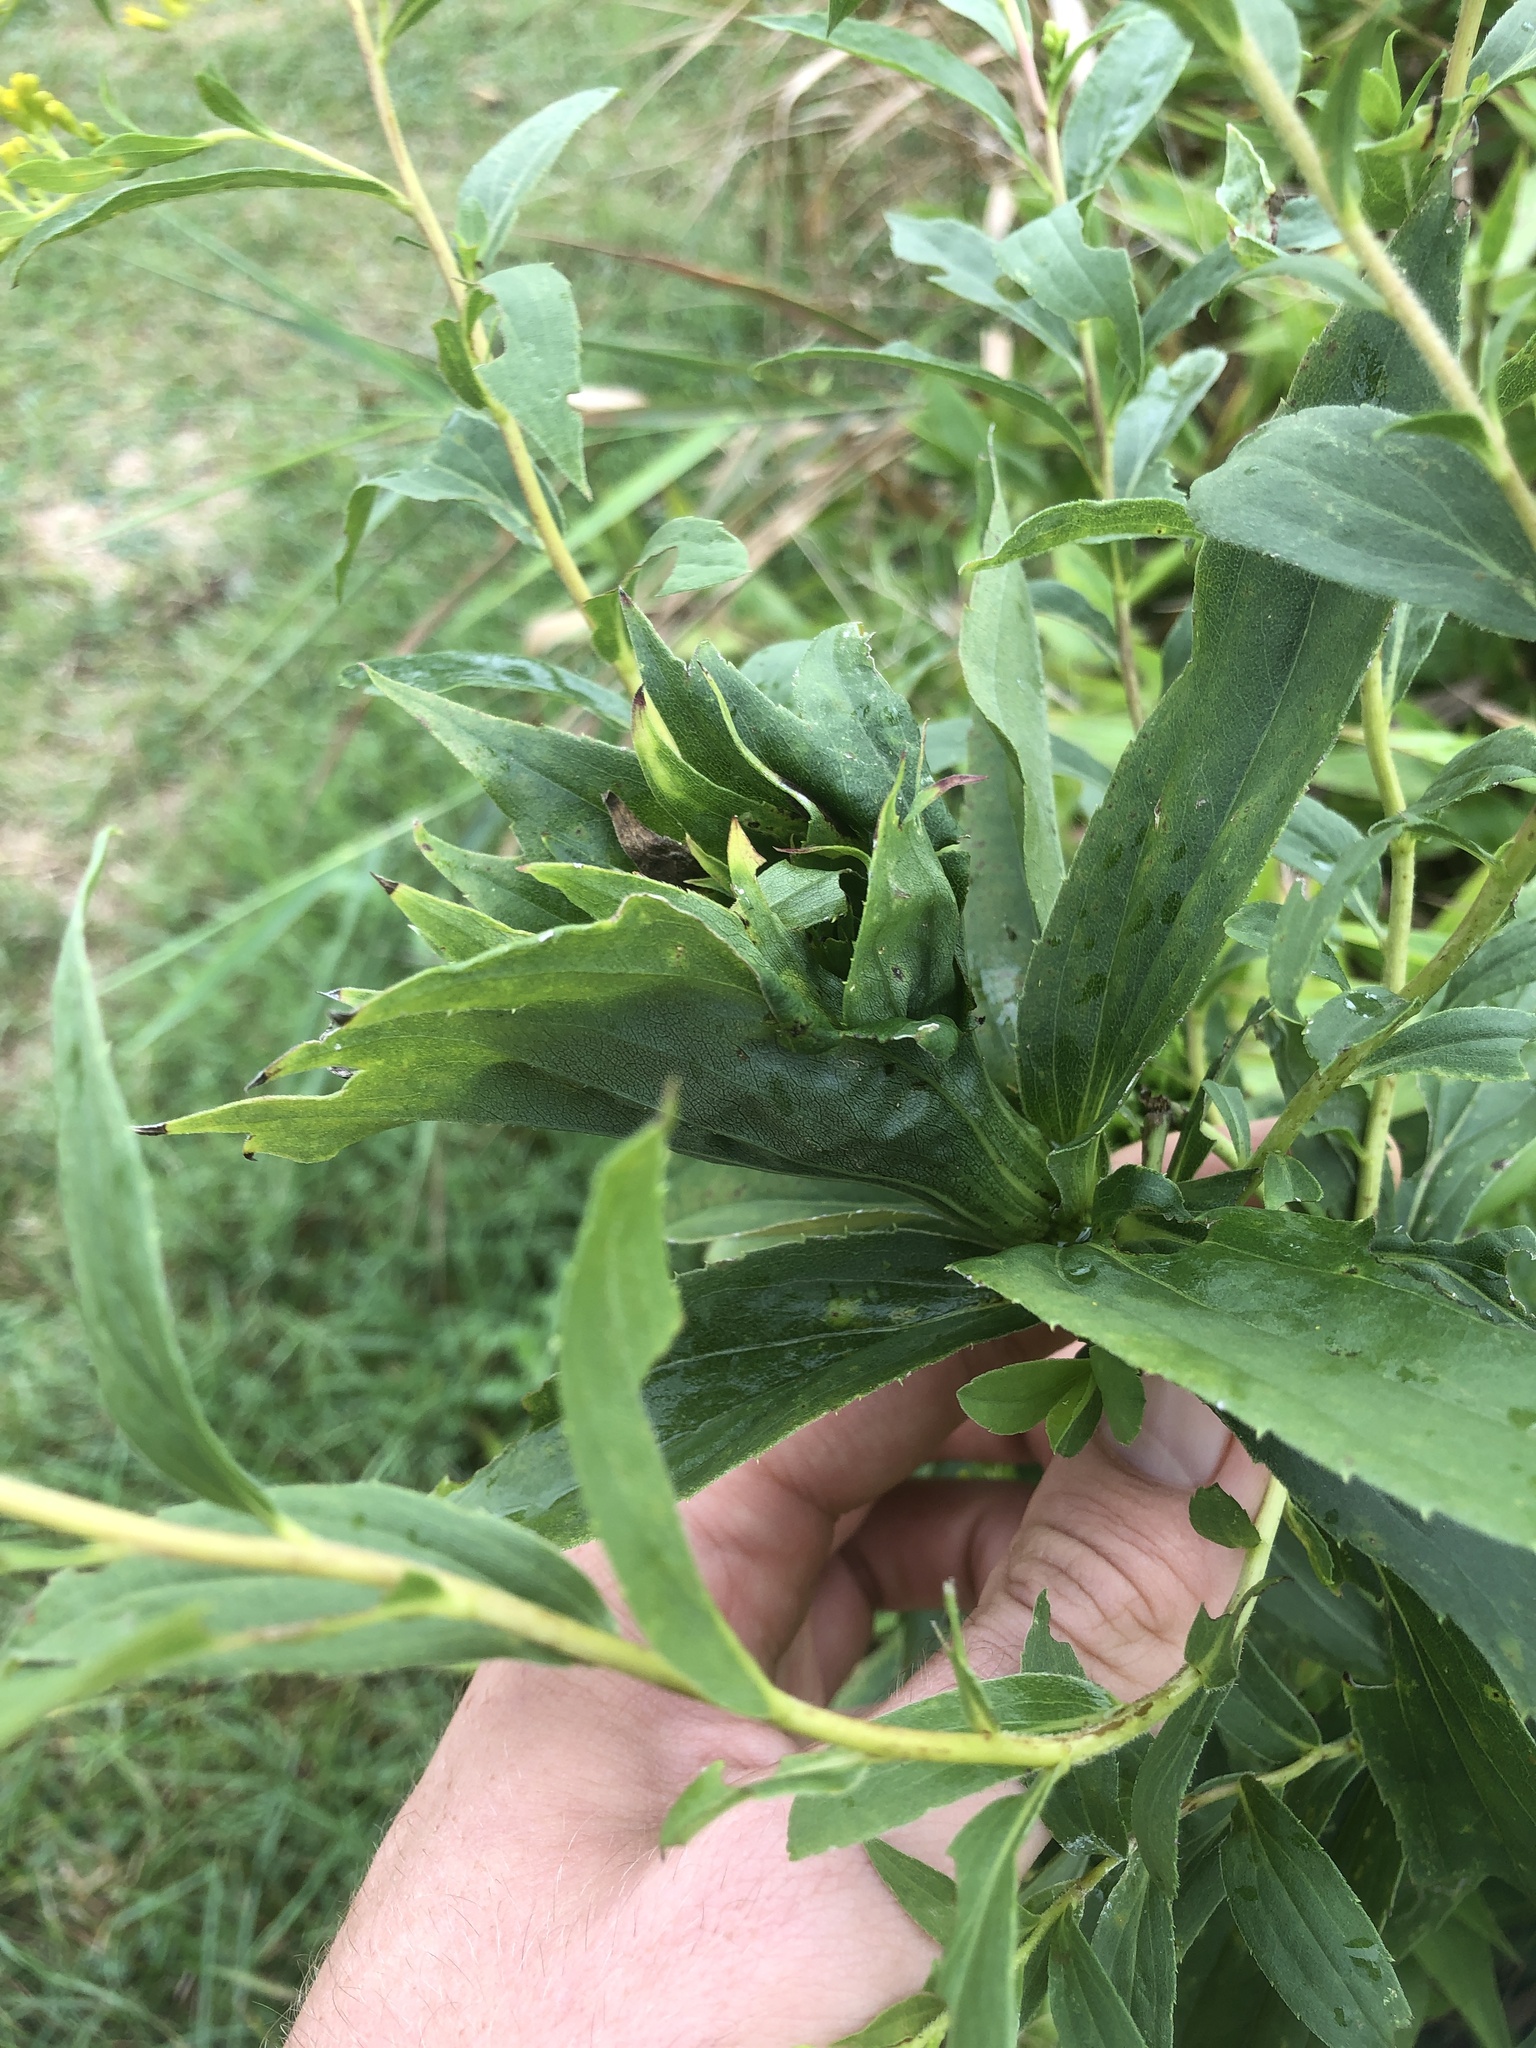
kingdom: Animalia
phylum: Arthropoda
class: Insecta
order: Diptera
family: Cecidomyiidae
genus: Rhopalomyia
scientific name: Rhopalomyia capitata
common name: Giant goldenrod bunch gall midge
